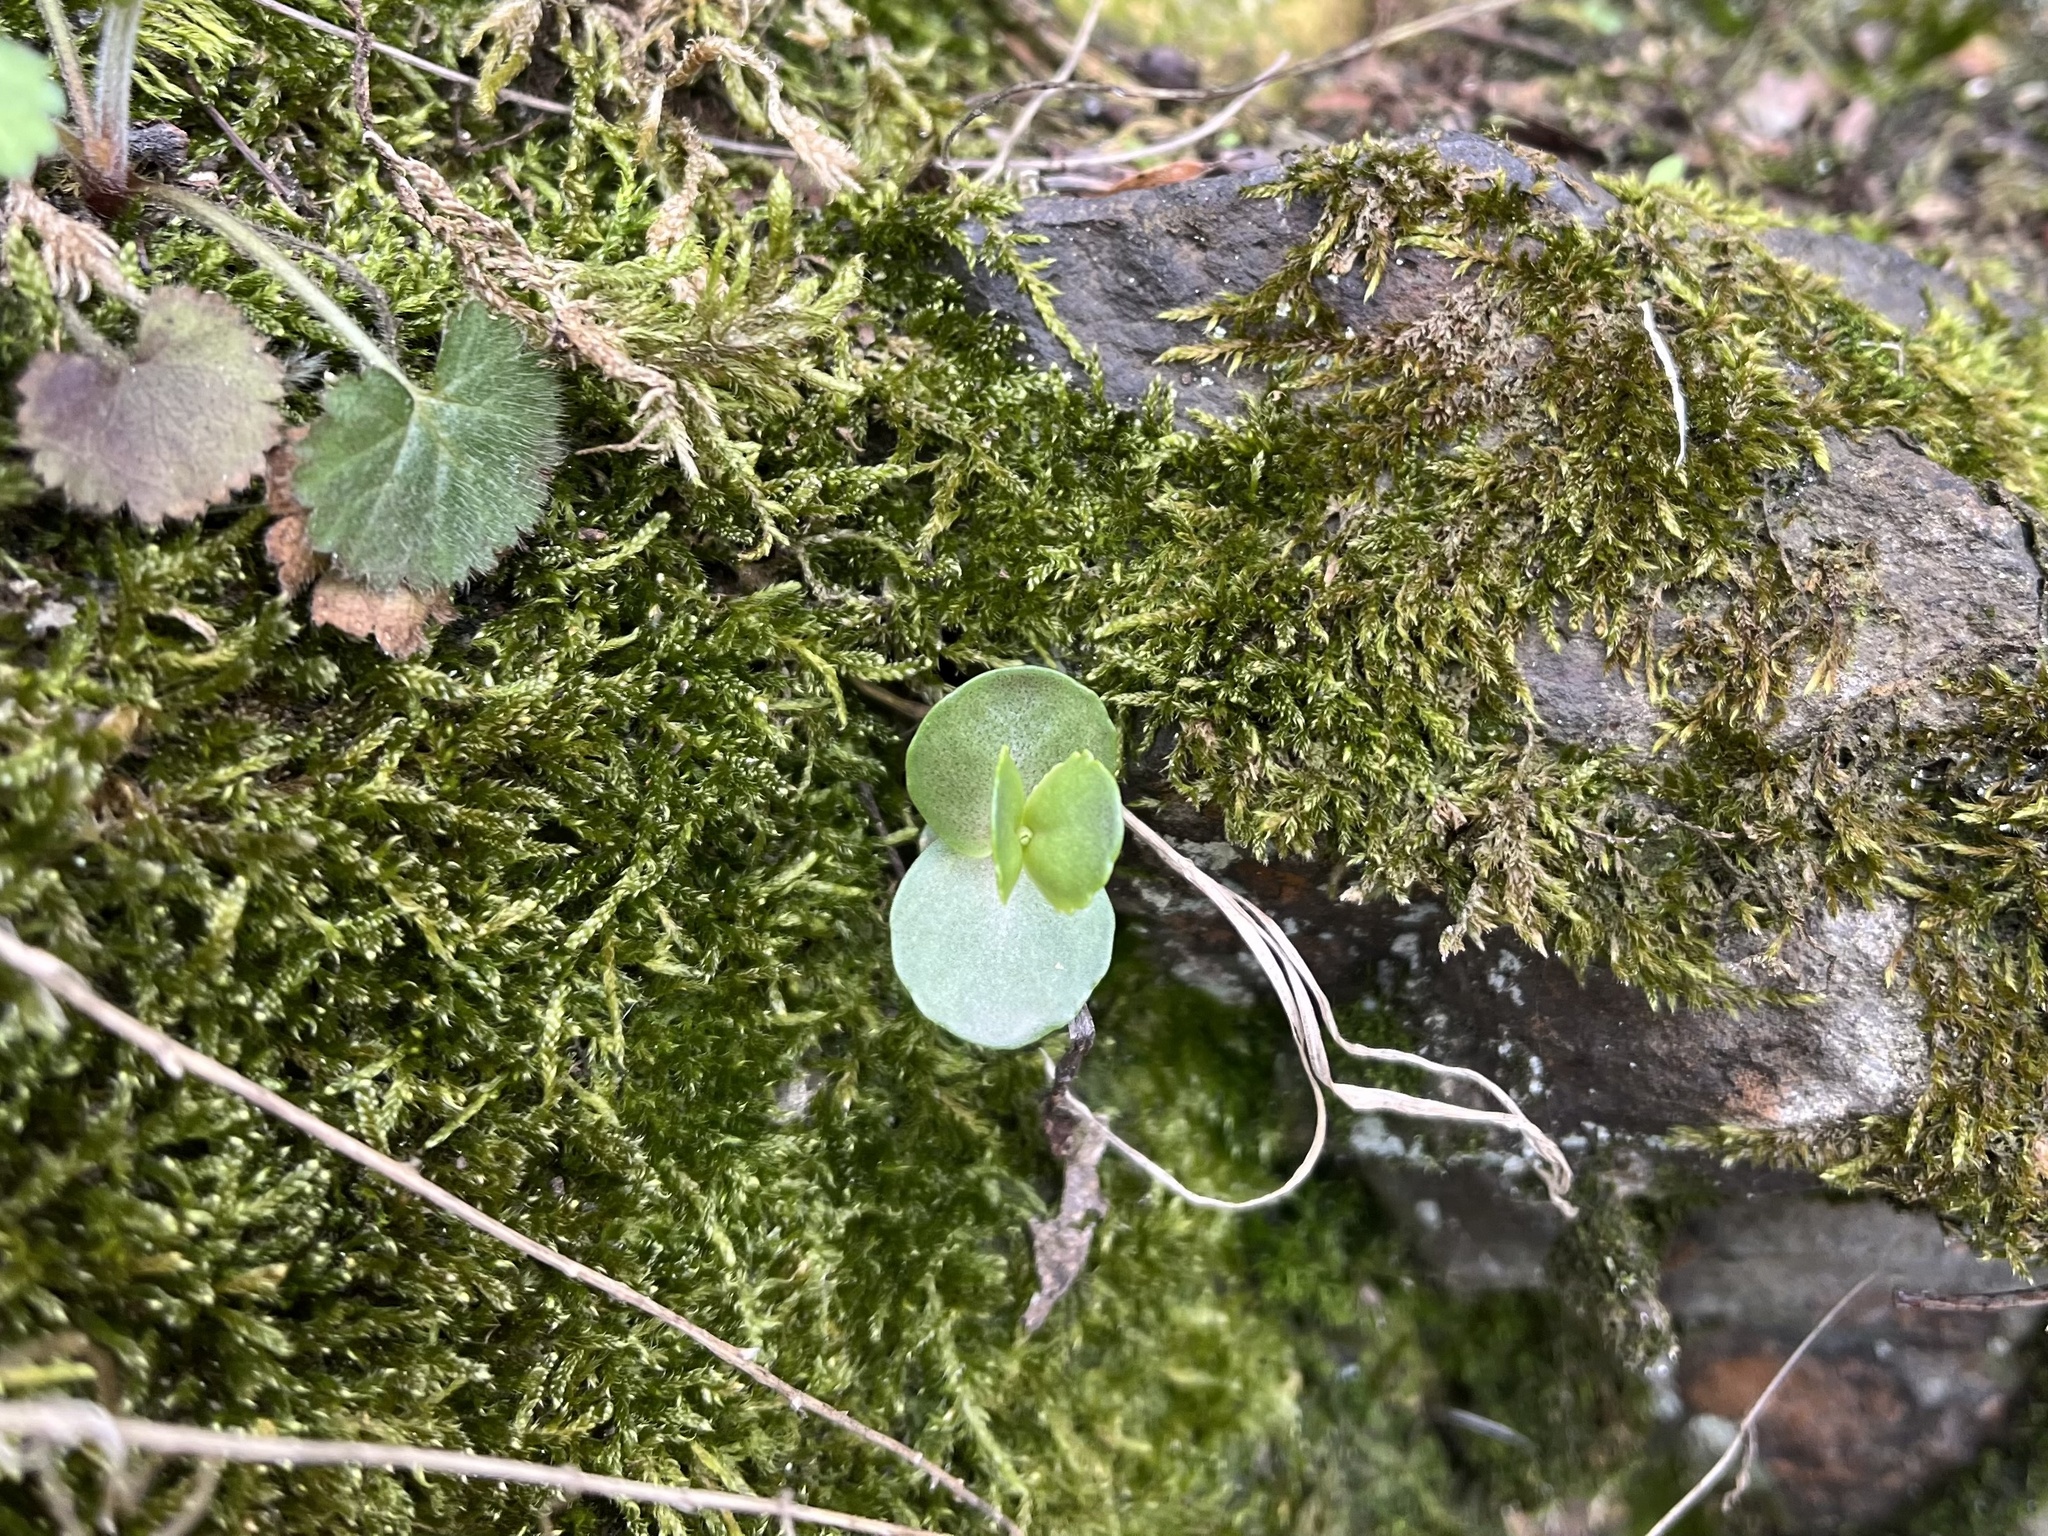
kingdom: Plantae
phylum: Tracheophyta
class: Magnoliopsida
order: Saxifragales
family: Crassulaceae
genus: Hylotelephium
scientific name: Hylotelephium maximum
